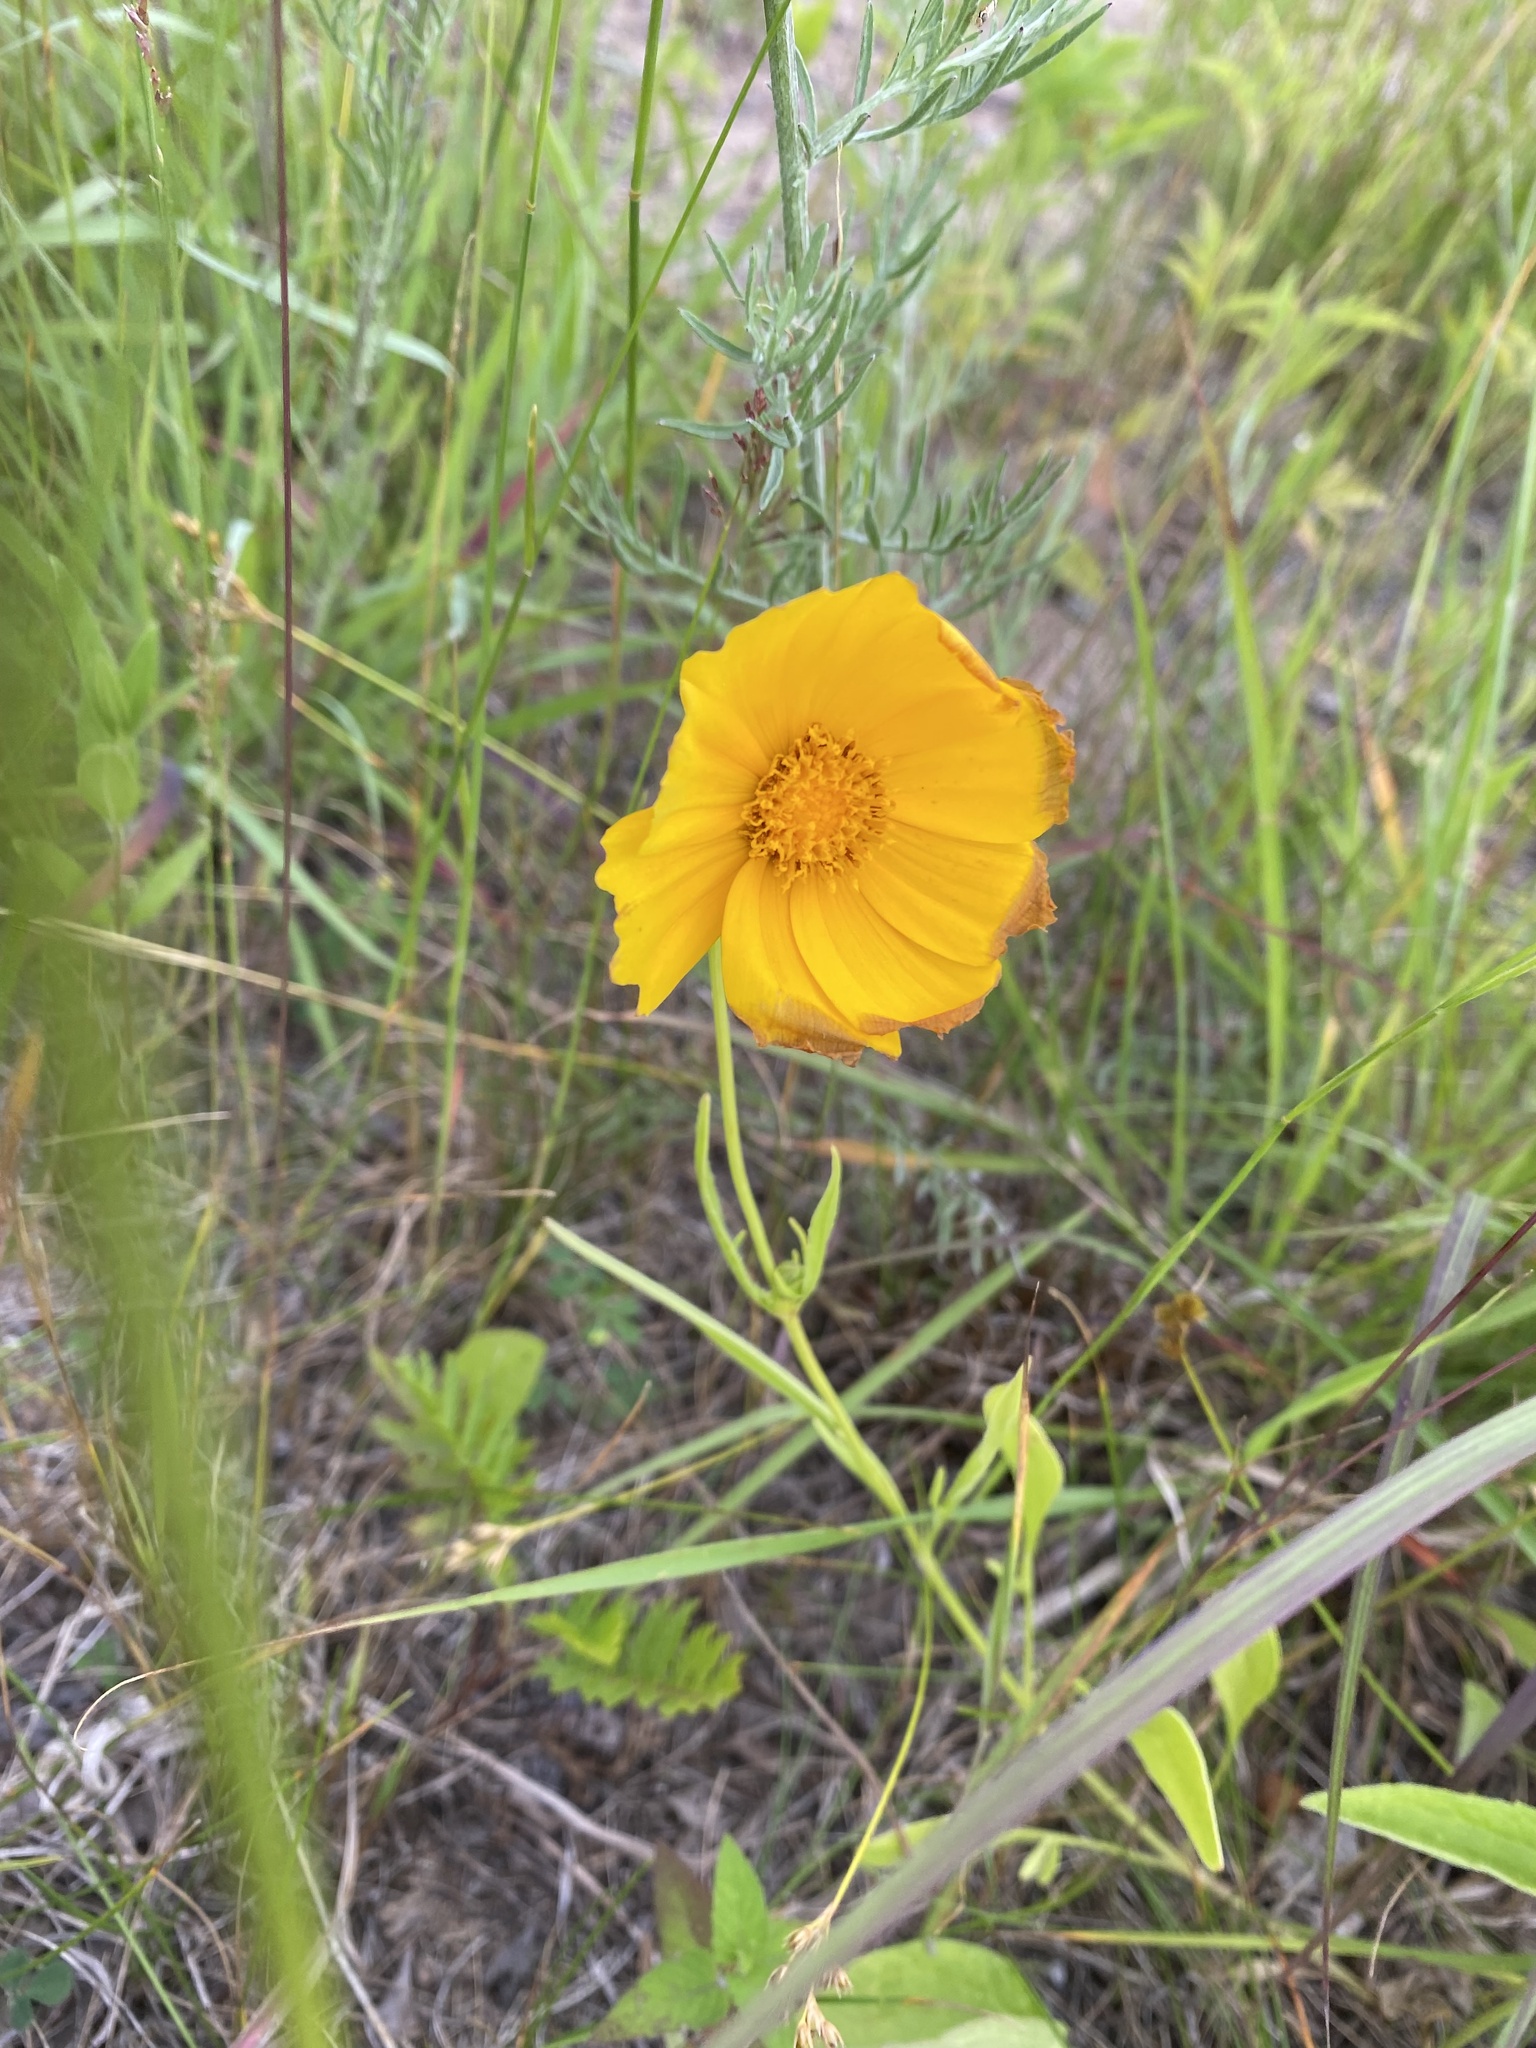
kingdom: Plantae
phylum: Tracheophyta
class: Magnoliopsida
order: Asterales
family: Asteraceae
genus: Coreopsis
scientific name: Coreopsis lanceolata
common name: Garden coreopsis
